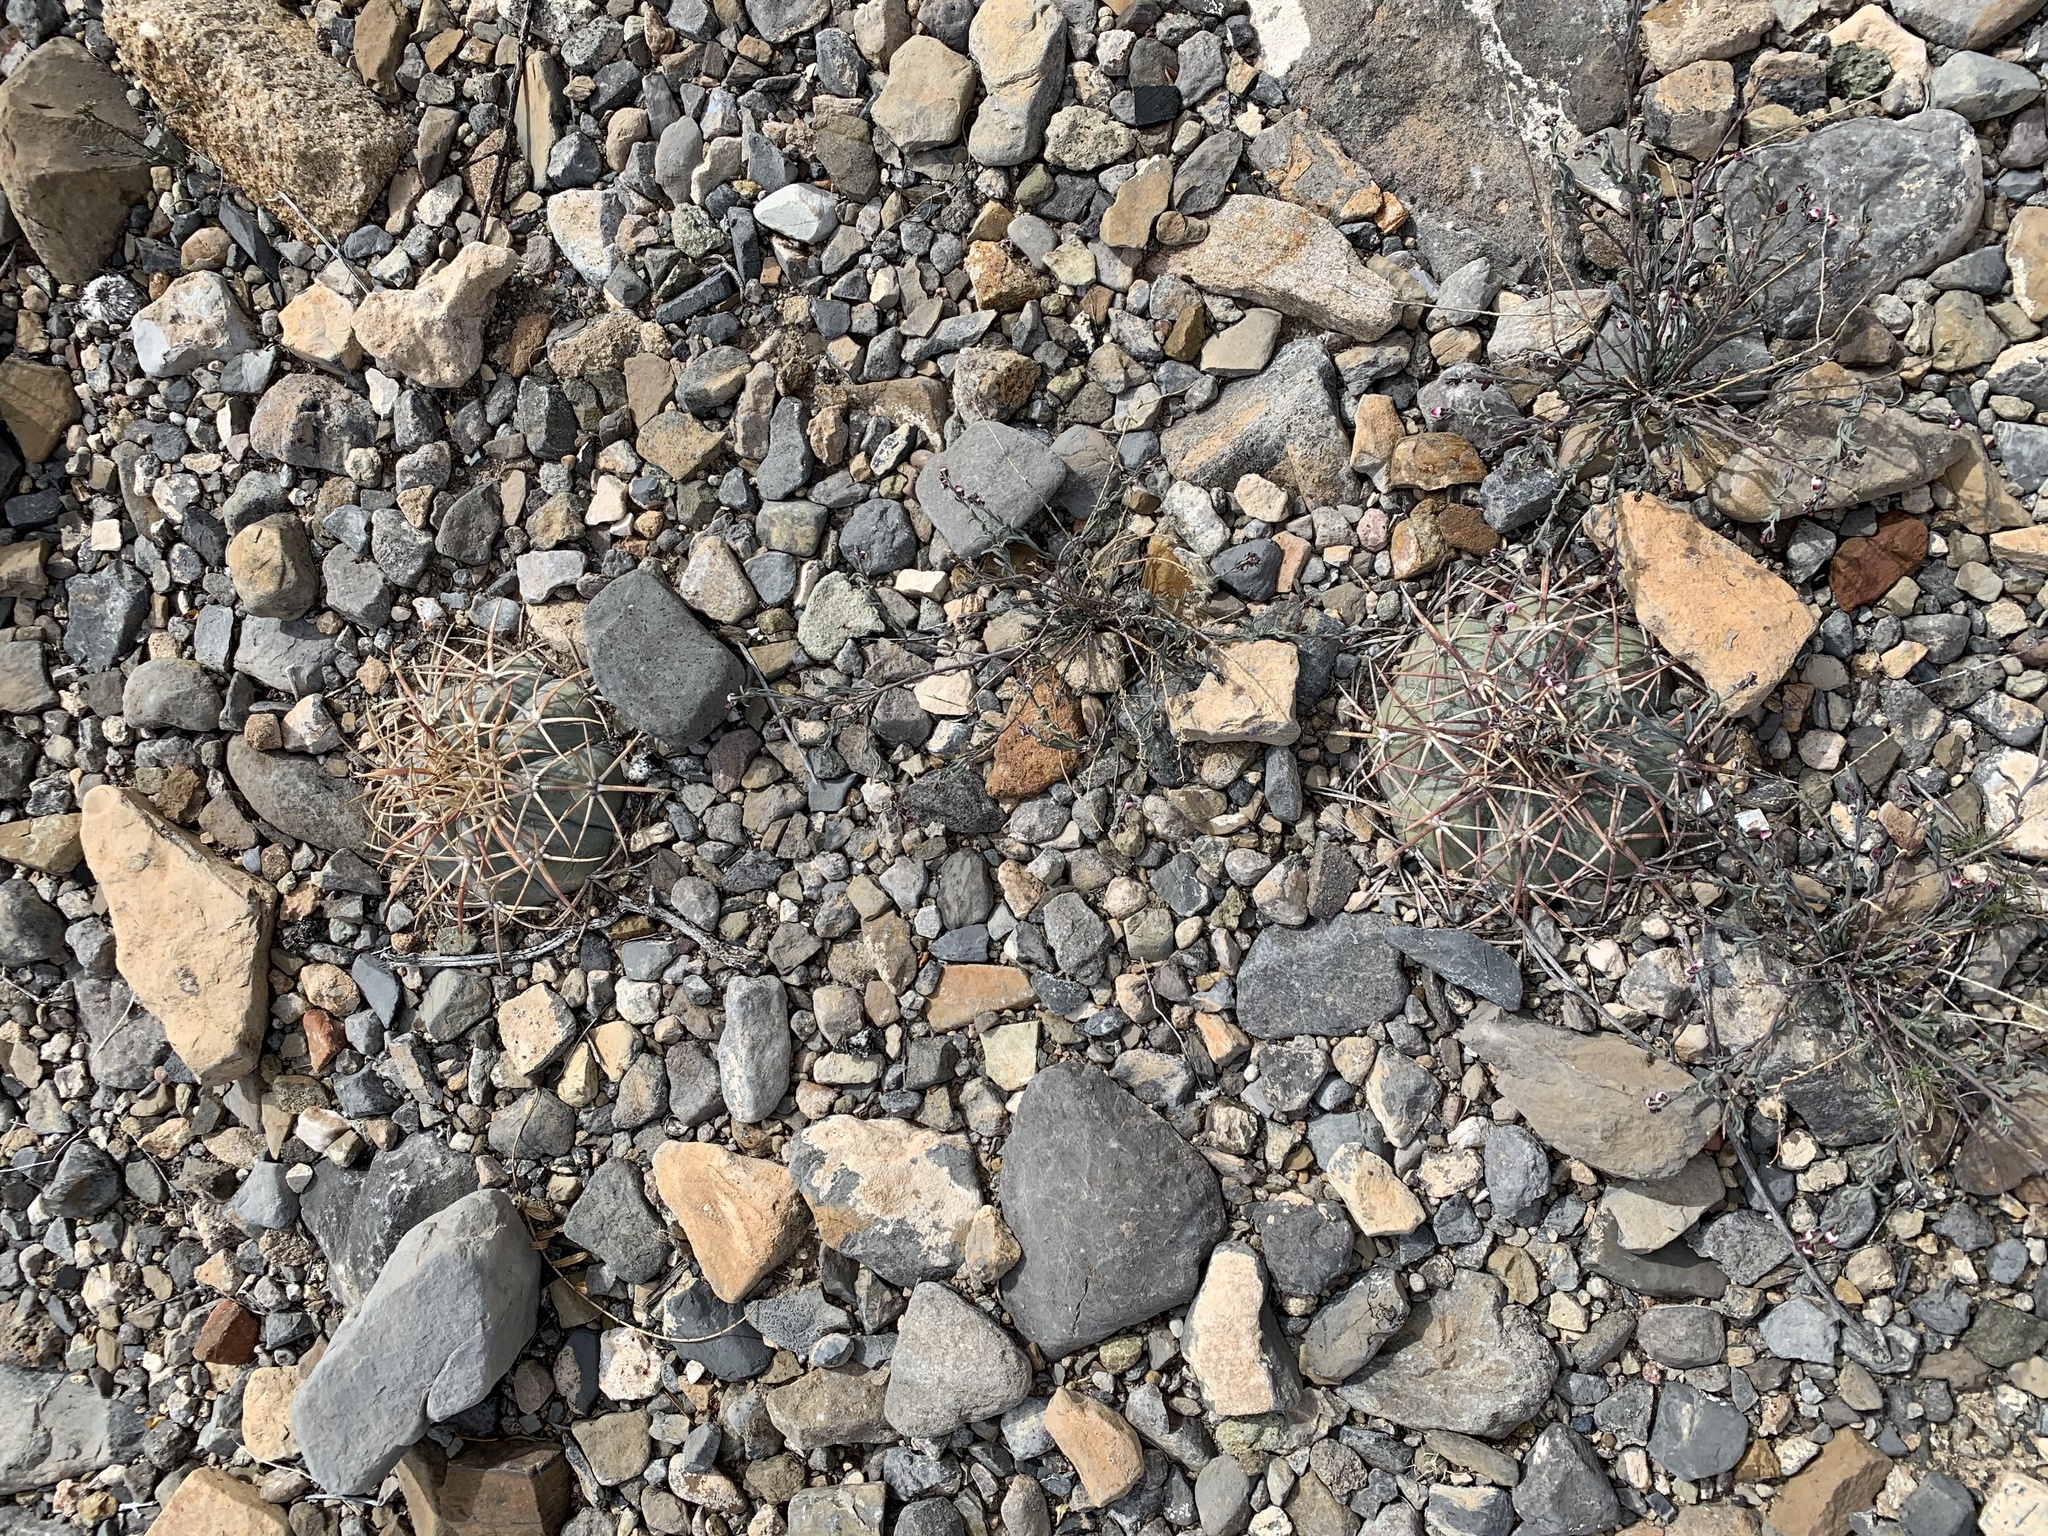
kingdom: Plantae
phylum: Tracheophyta
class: Magnoliopsida
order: Caryophyllales
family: Cactaceae
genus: Echinocactus
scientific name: Echinocactus horizonthalonius
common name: Devilshead
